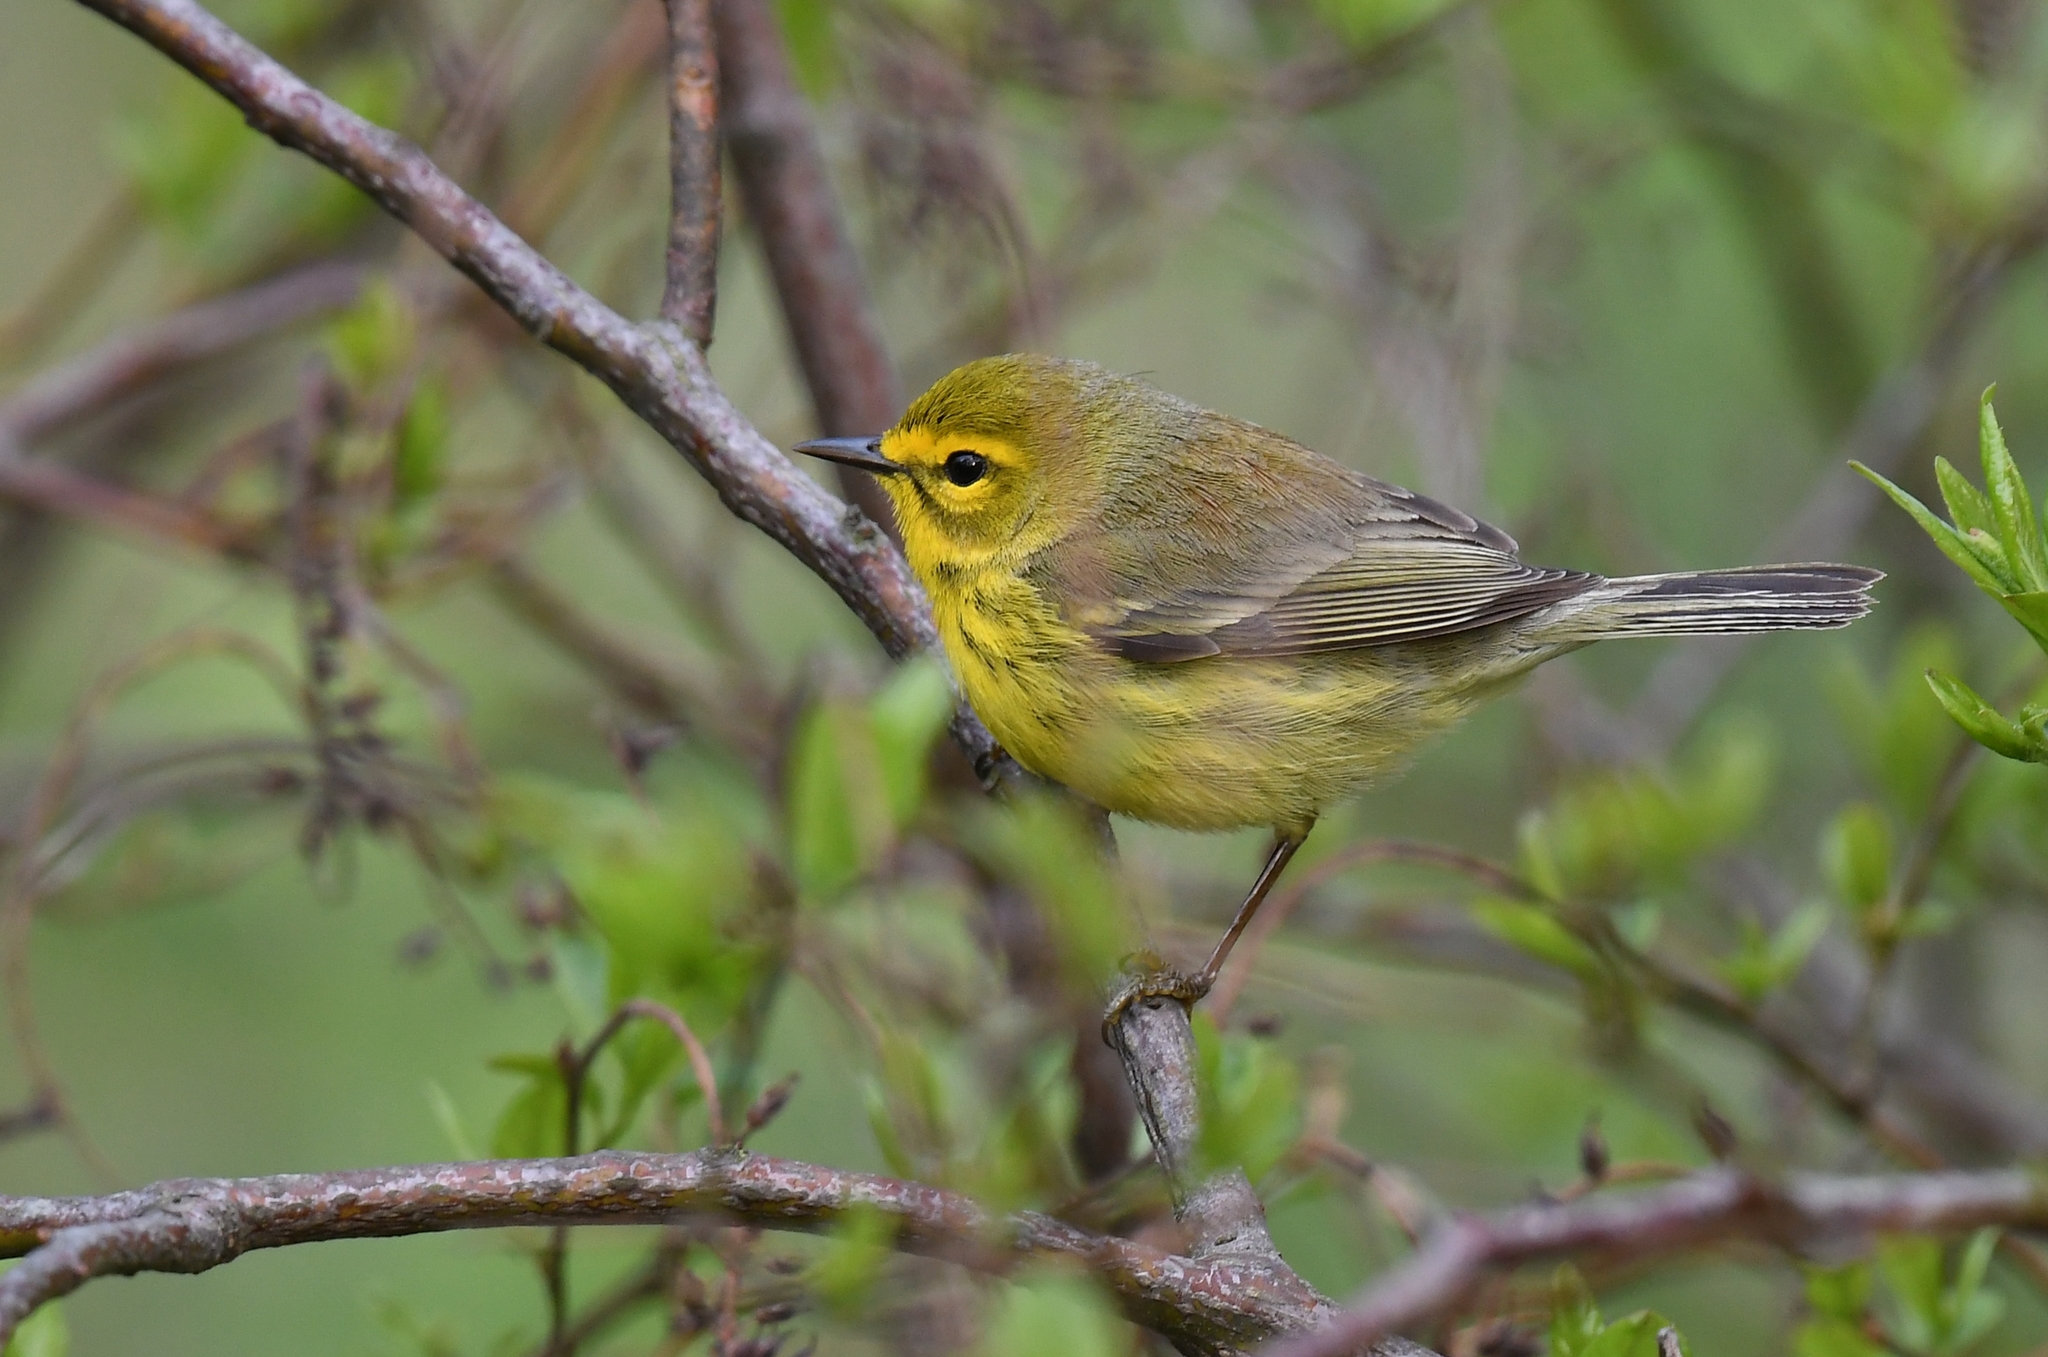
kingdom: Animalia
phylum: Chordata
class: Aves
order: Passeriformes
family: Parulidae
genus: Setophaga
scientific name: Setophaga discolor
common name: Prairie warbler
